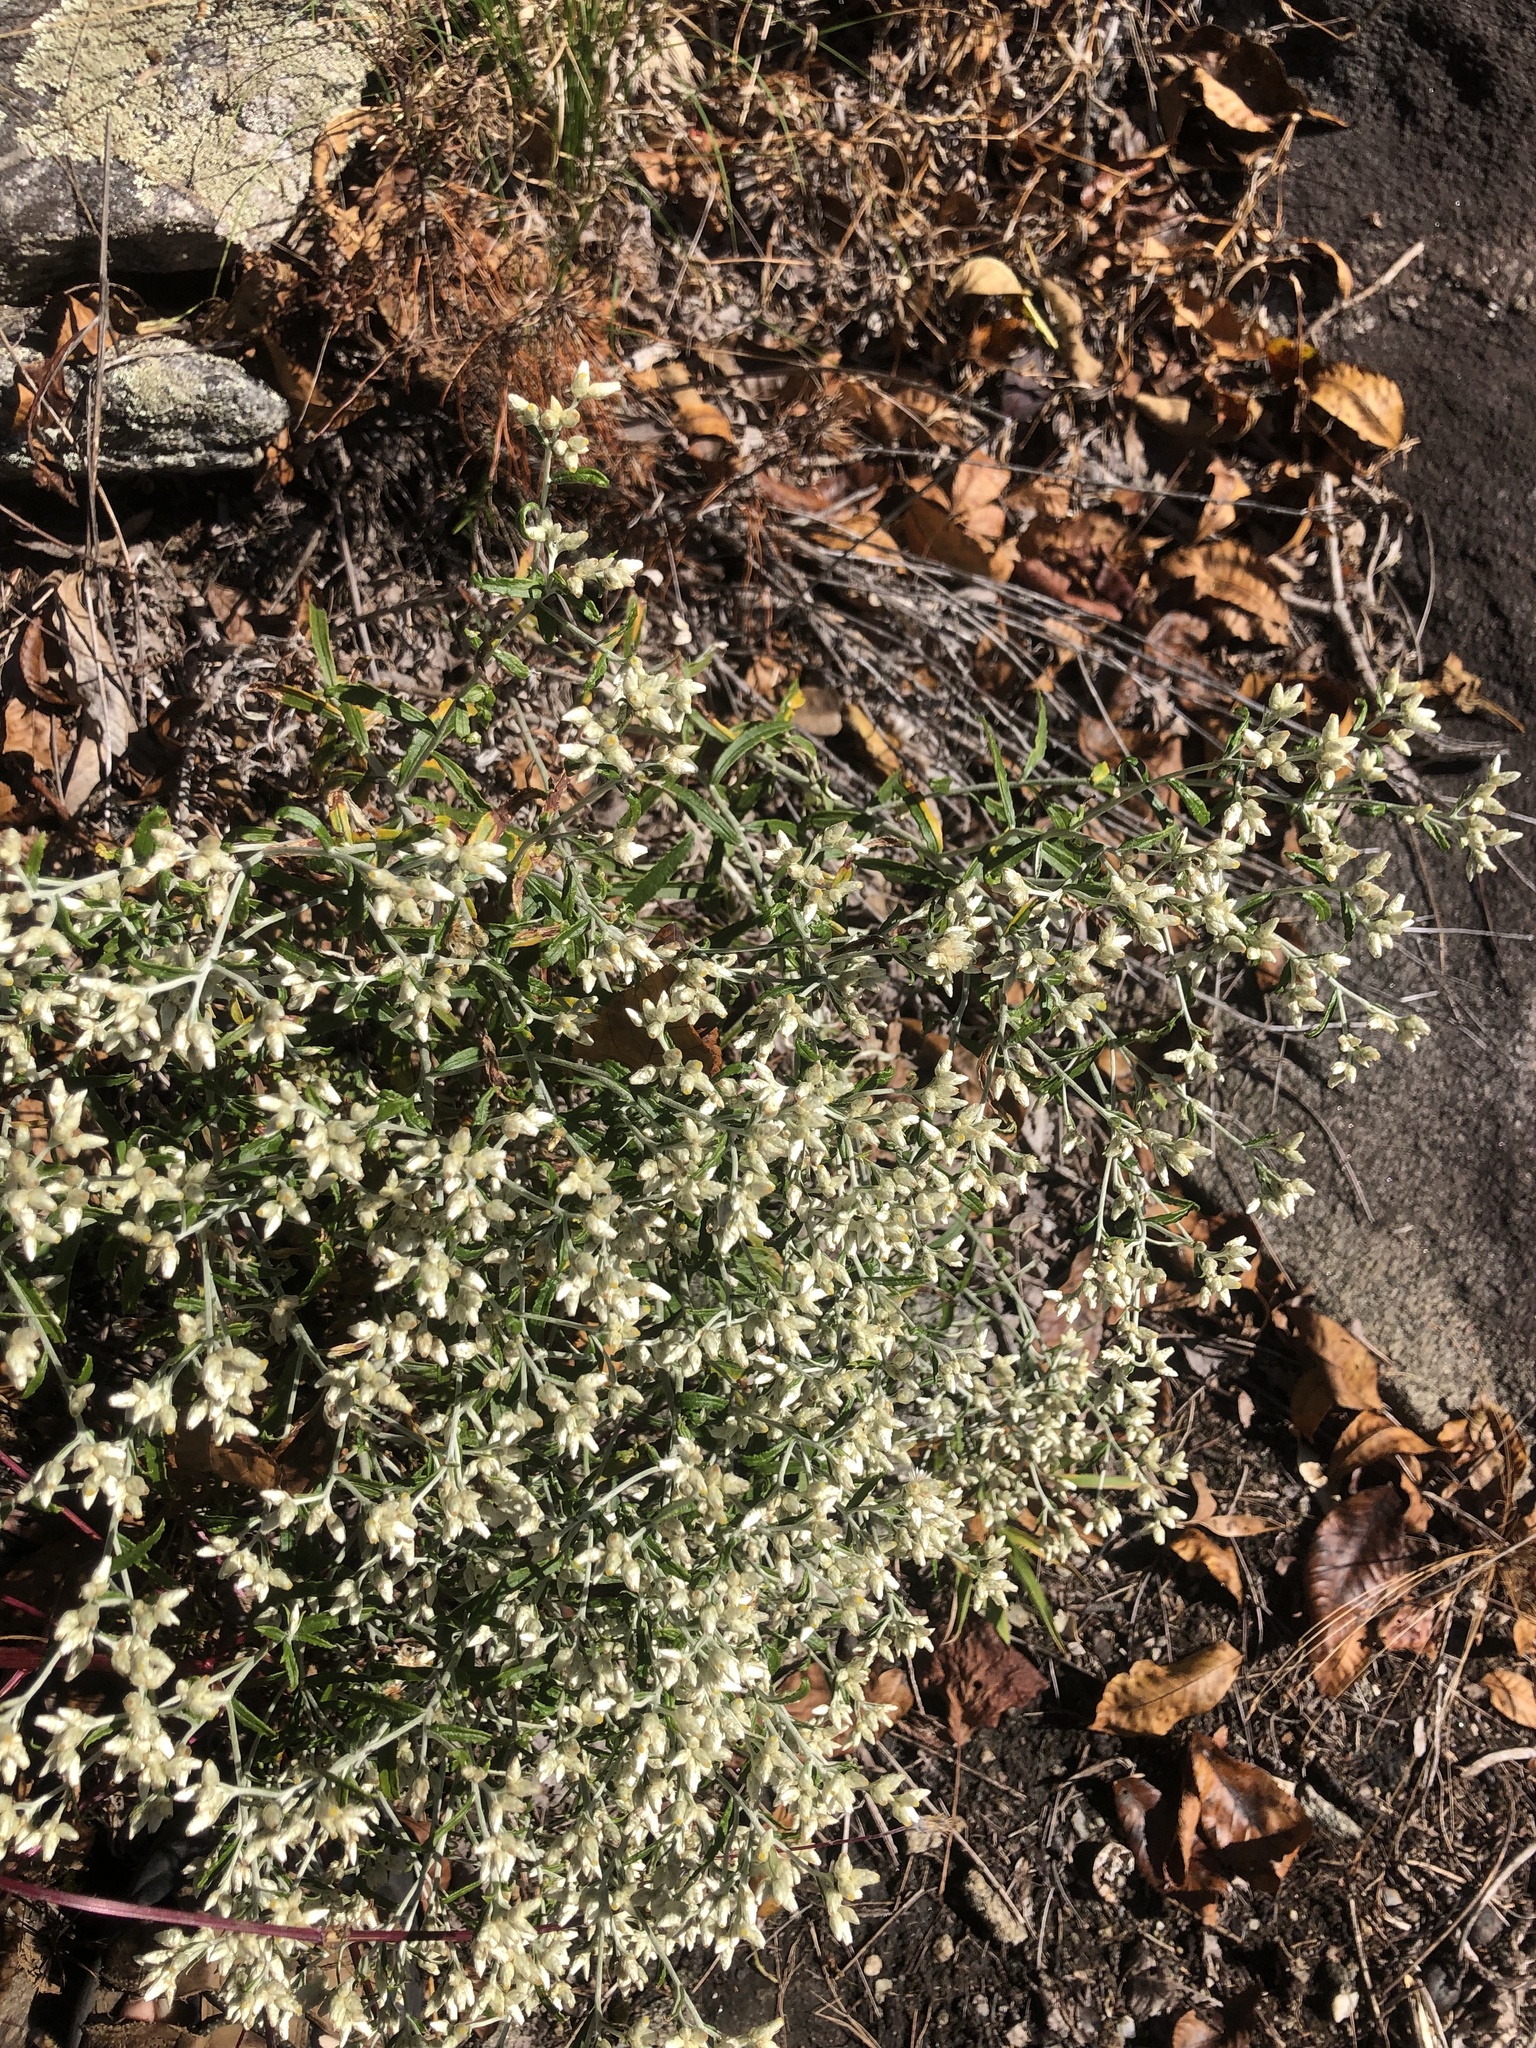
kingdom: Plantae
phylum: Tracheophyta
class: Magnoliopsida
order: Asterales
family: Asteraceae
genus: Pseudognaphalium
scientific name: Pseudognaphalium obtusifolium
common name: Eastern rabbit-tobacco
